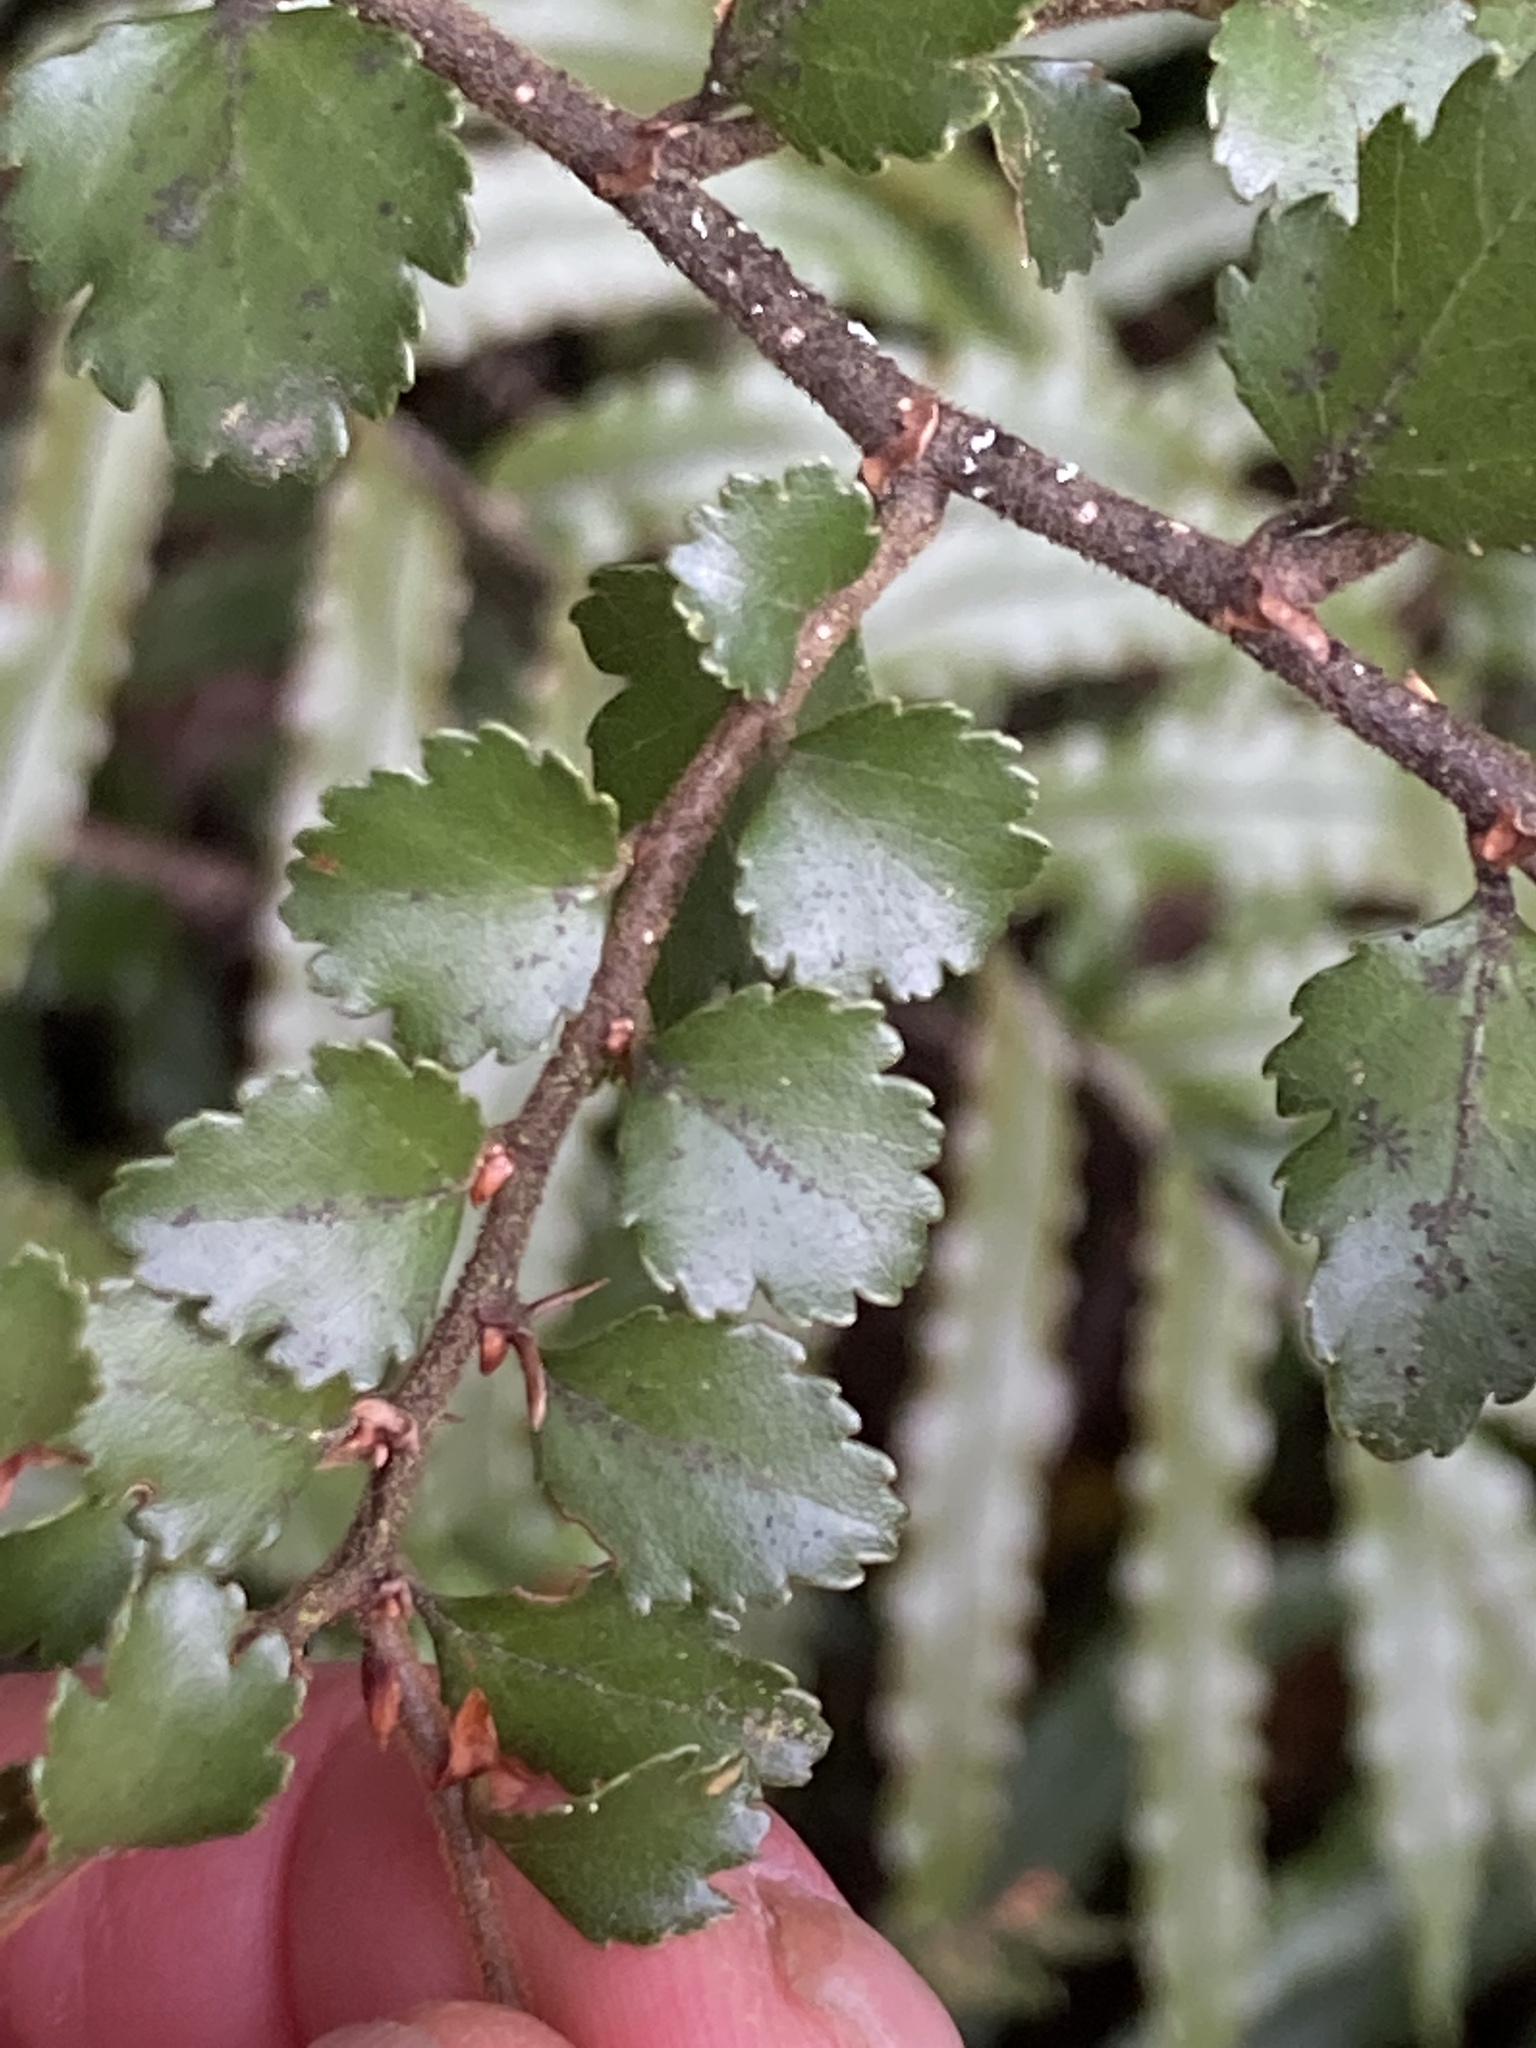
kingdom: Plantae
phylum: Tracheophyta
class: Magnoliopsida
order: Fagales
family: Nothofagaceae
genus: Nothofagus
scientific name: Nothofagus menziesii
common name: Silver beech
